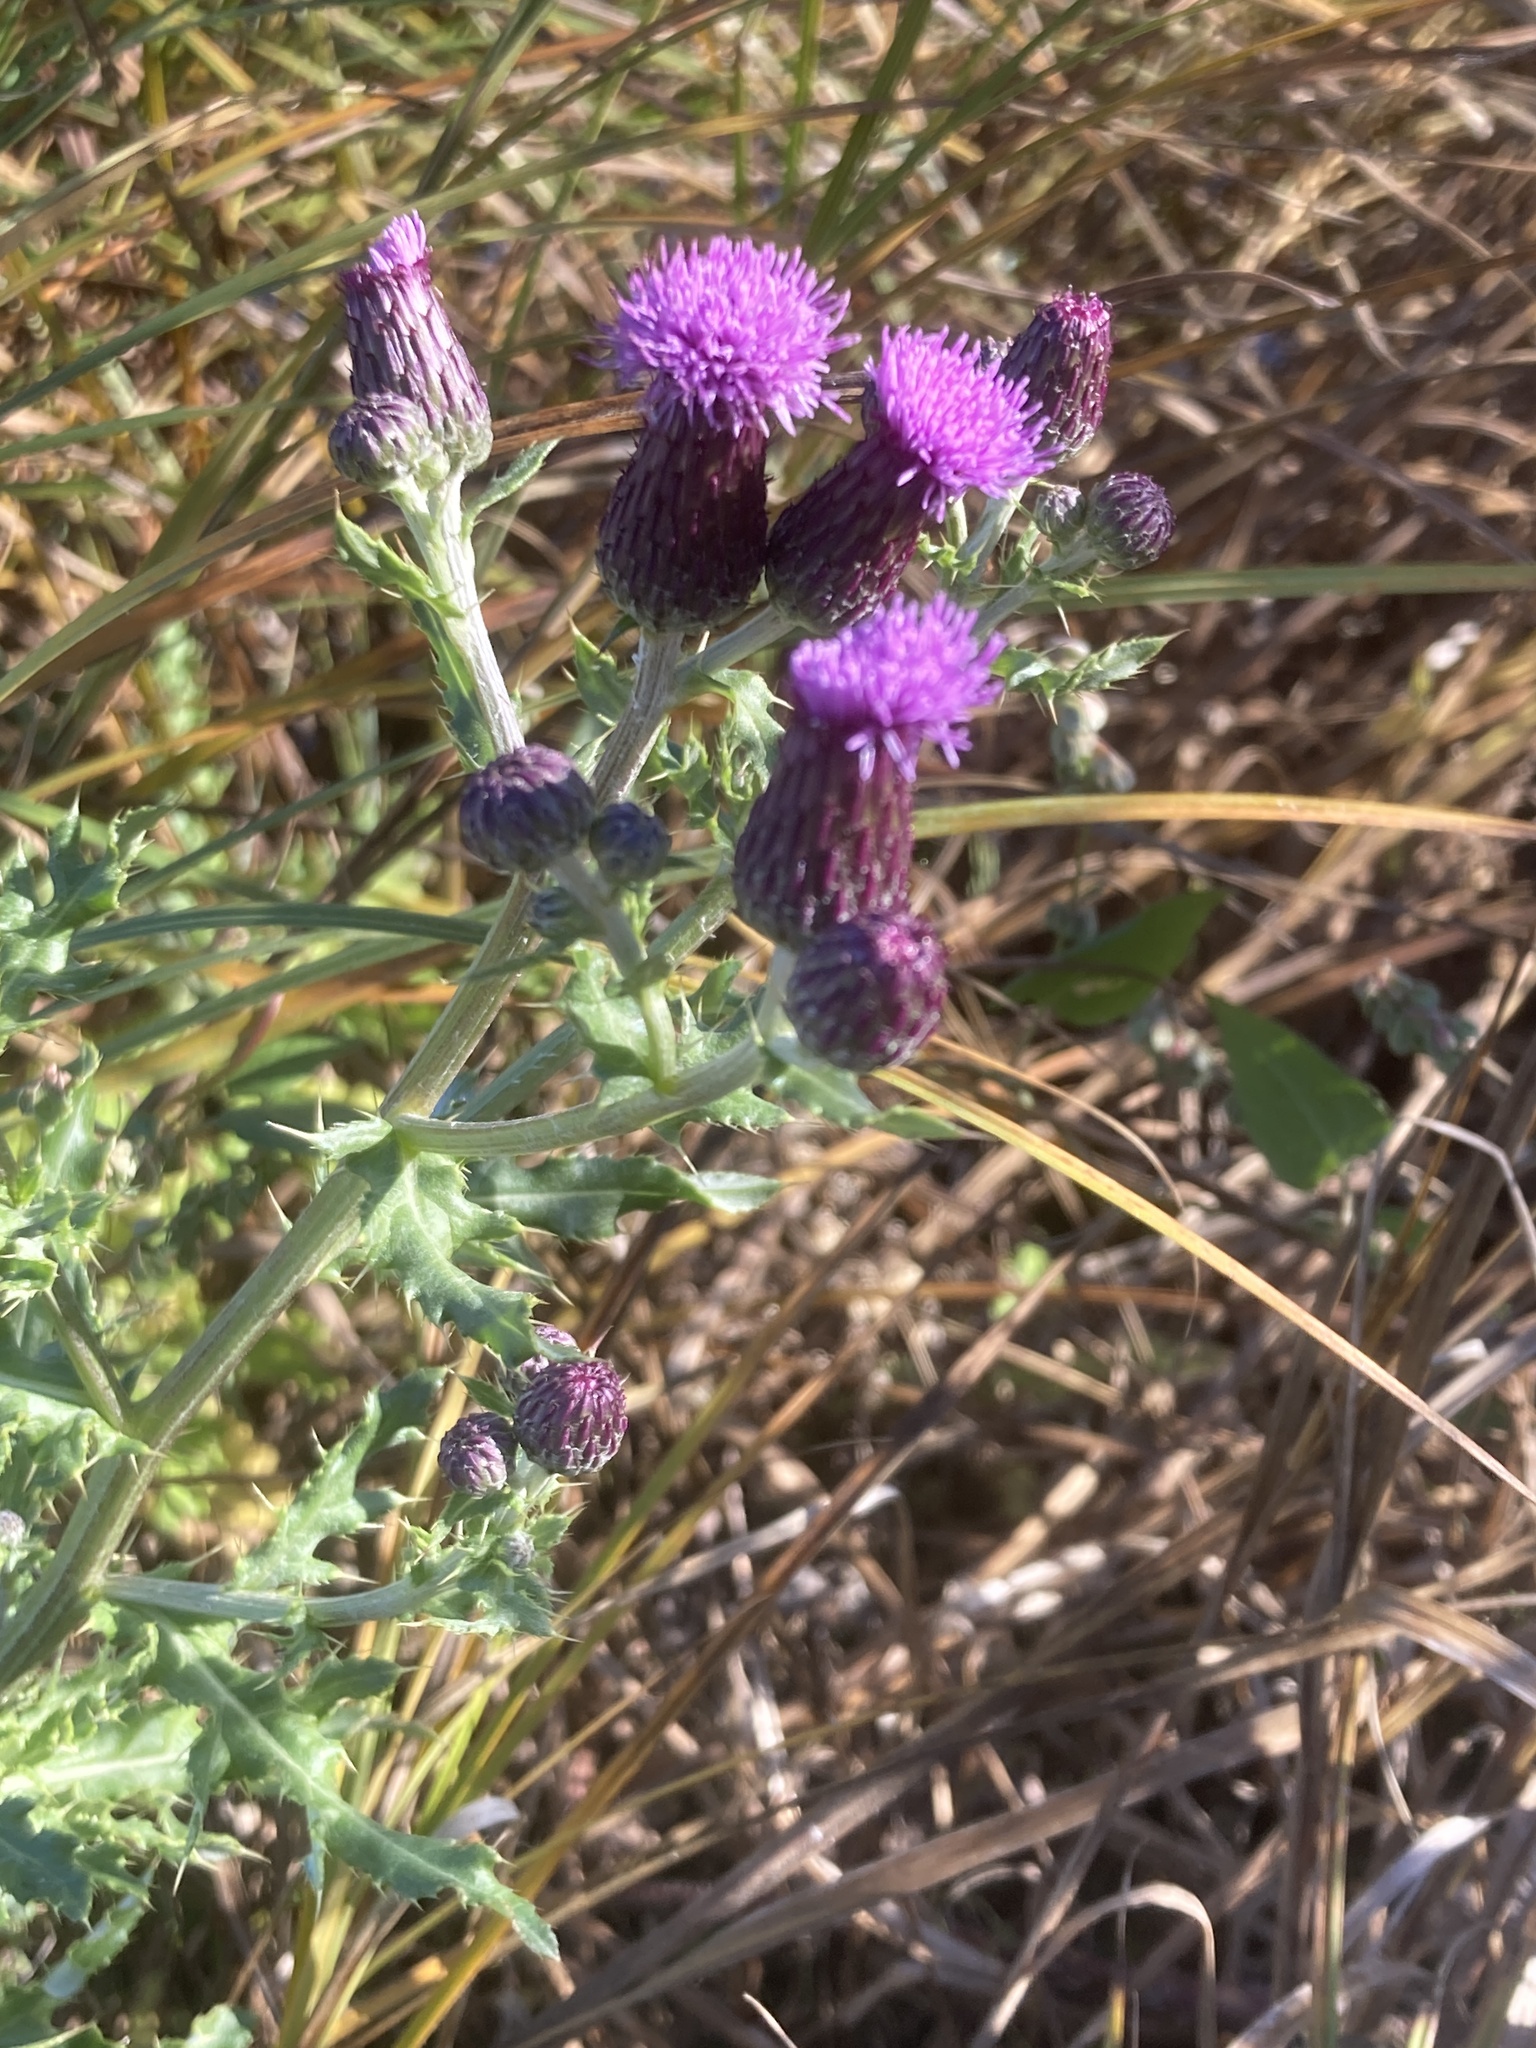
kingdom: Plantae
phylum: Tracheophyta
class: Magnoliopsida
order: Asterales
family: Asteraceae
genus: Cirsium
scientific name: Cirsium arvense
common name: Creeping thistle
